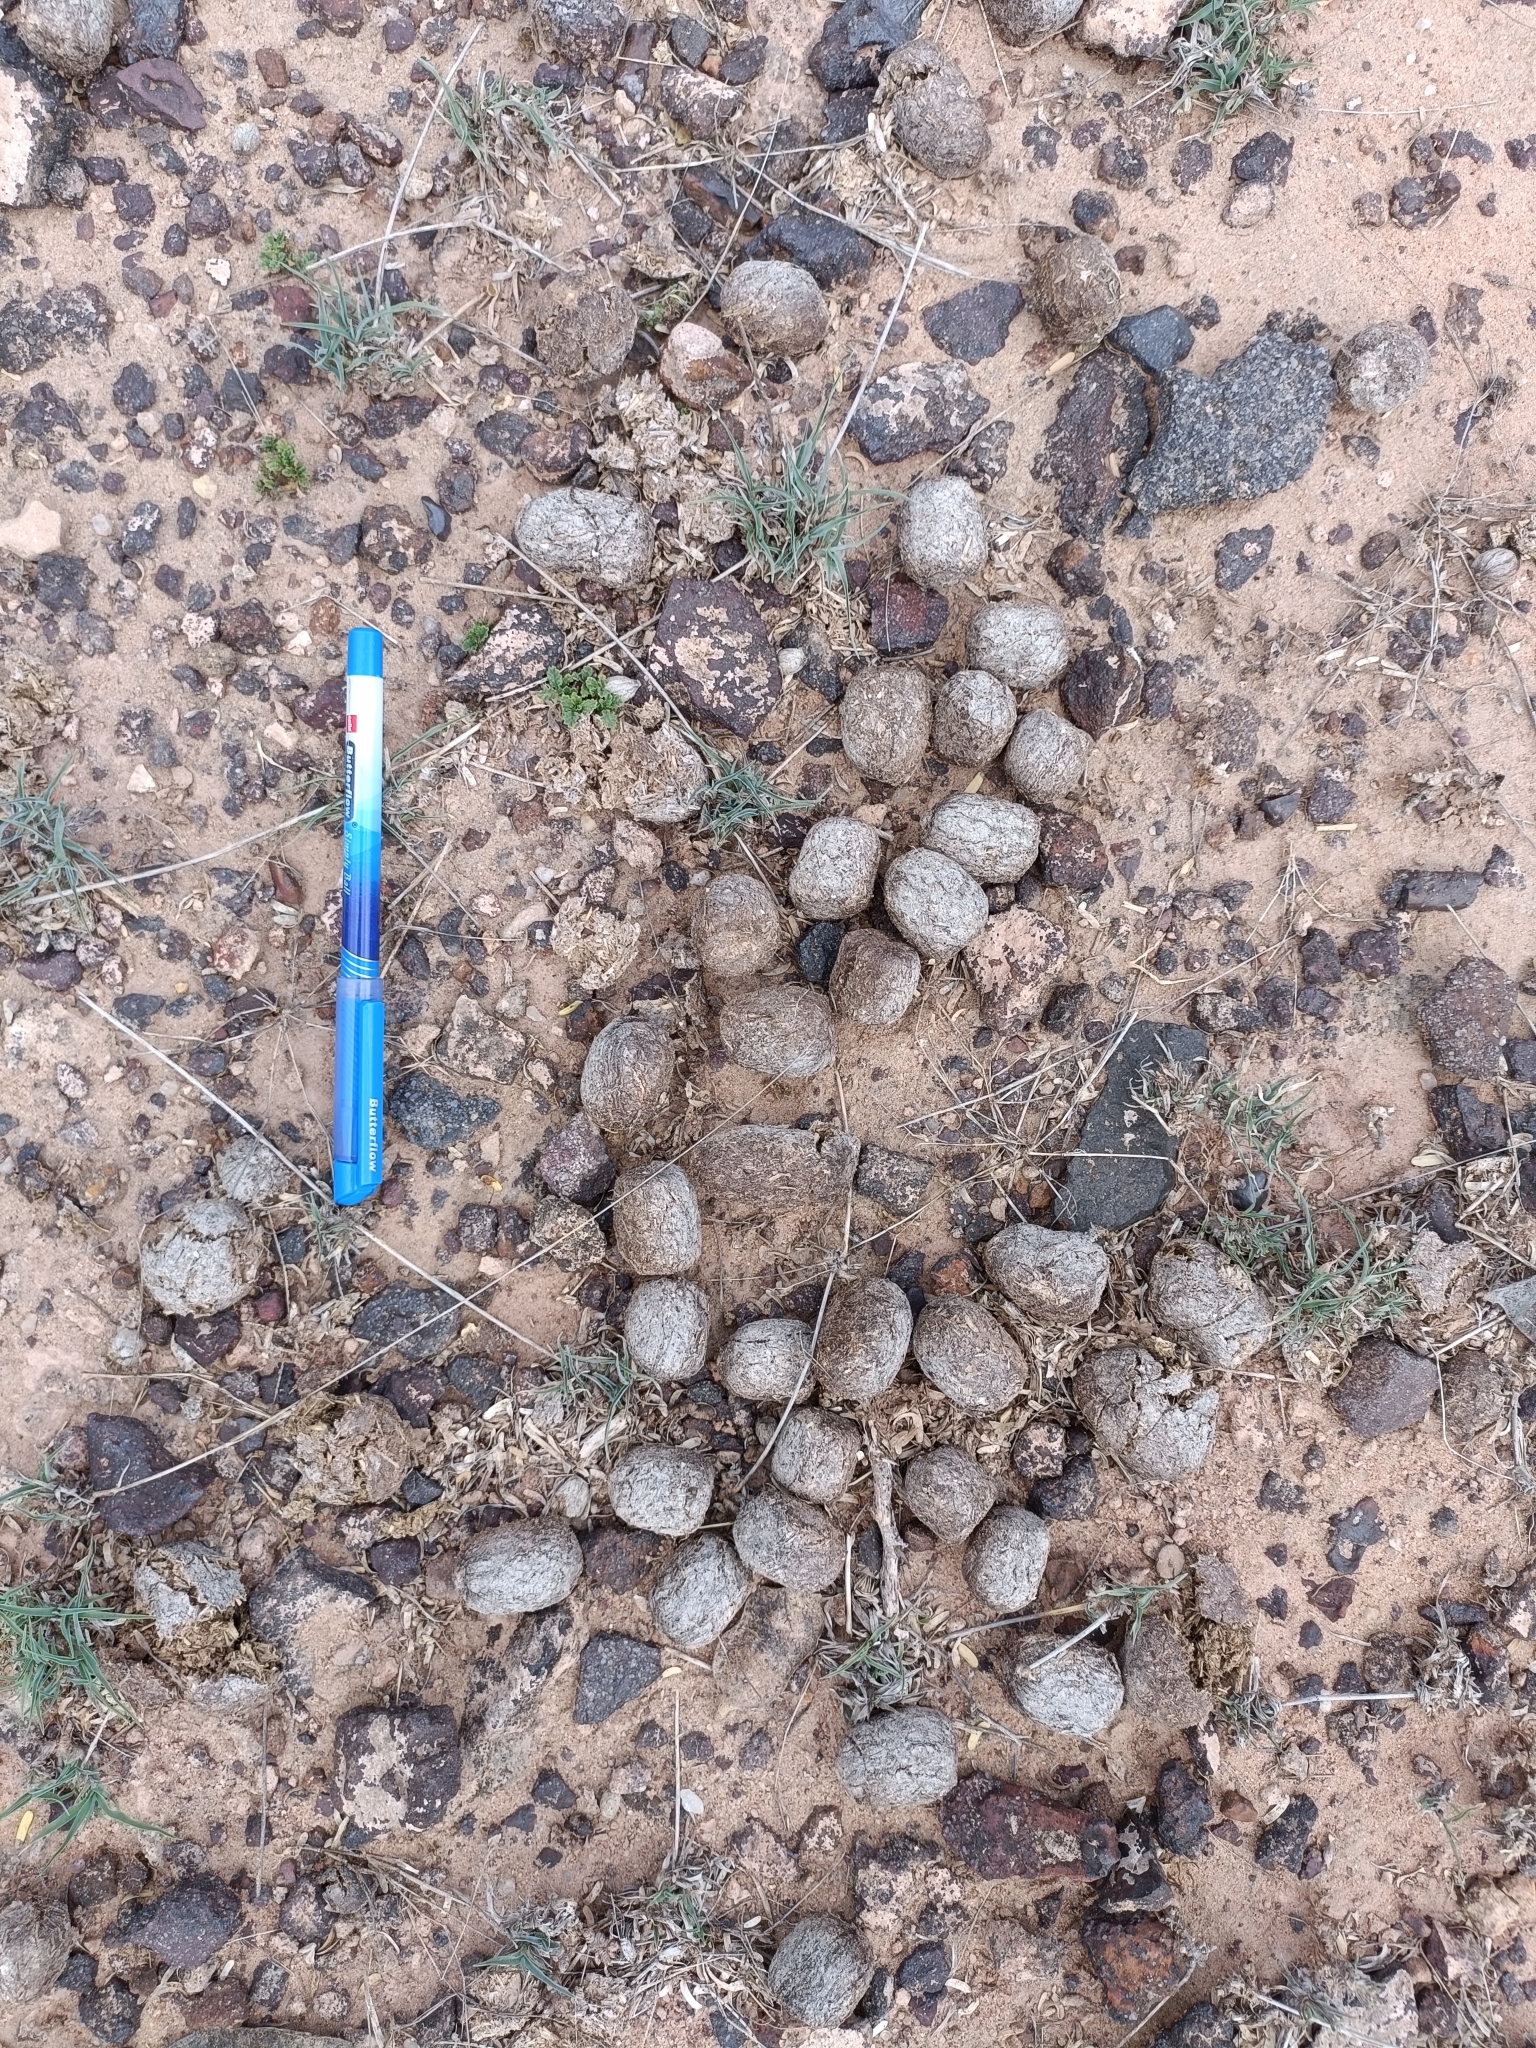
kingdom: Animalia
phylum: Chordata
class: Mammalia
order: Artiodactyla
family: Bovidae
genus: Boselaphus
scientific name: Boselaphus tragocamelus
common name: Nilgai
